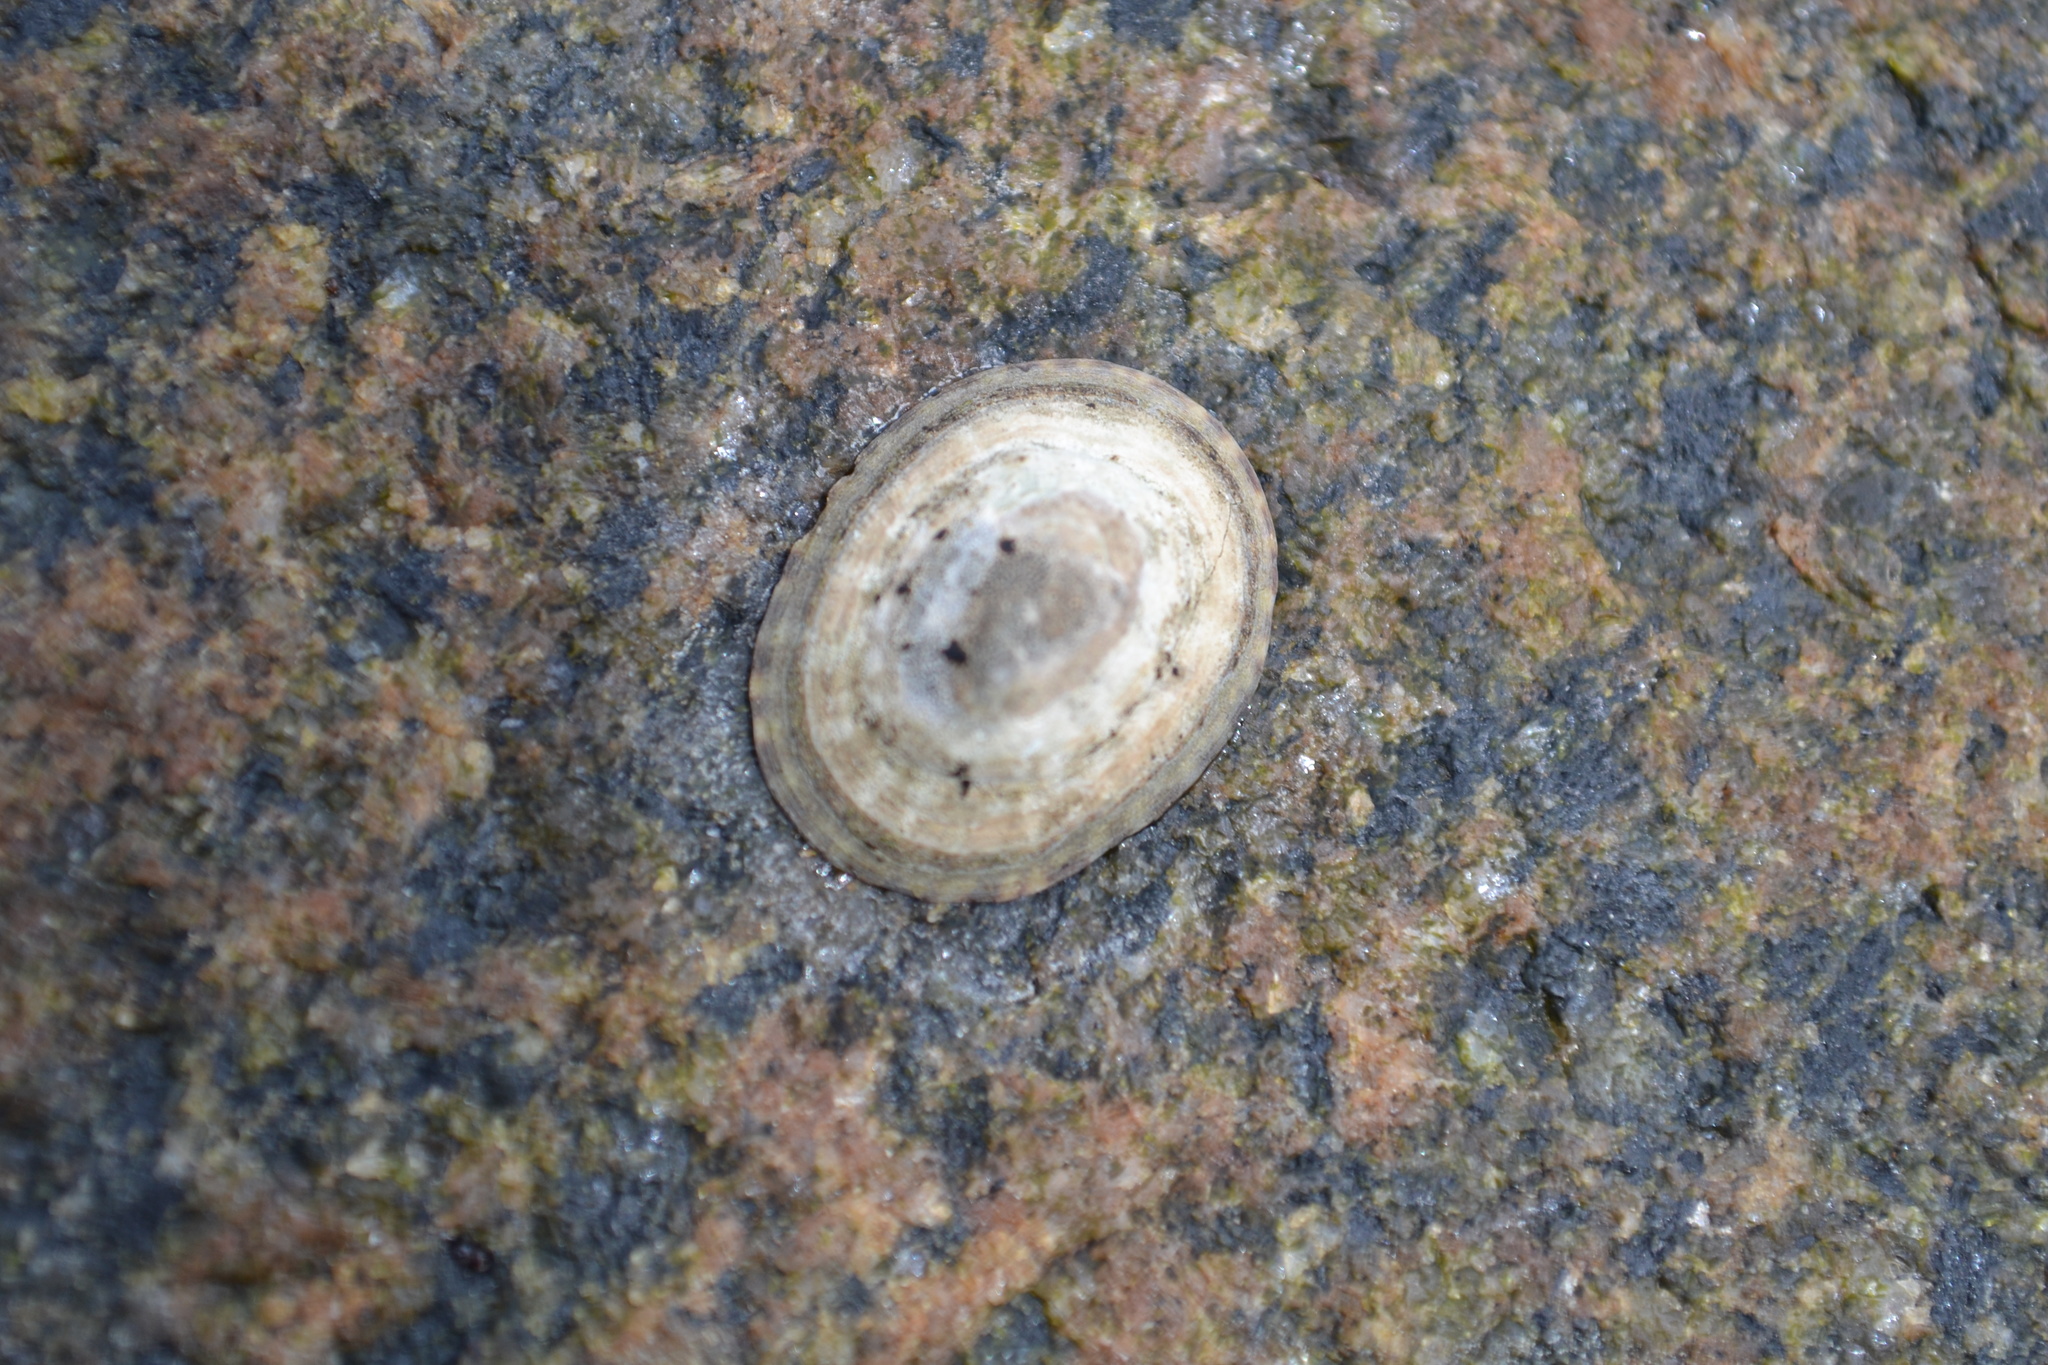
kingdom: Animalia
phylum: Mollusca
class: Gastropoda
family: Lottiidae
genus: Testudinalia
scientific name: Testudinalia testudinalis
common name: Common tortoiseshell limpet
